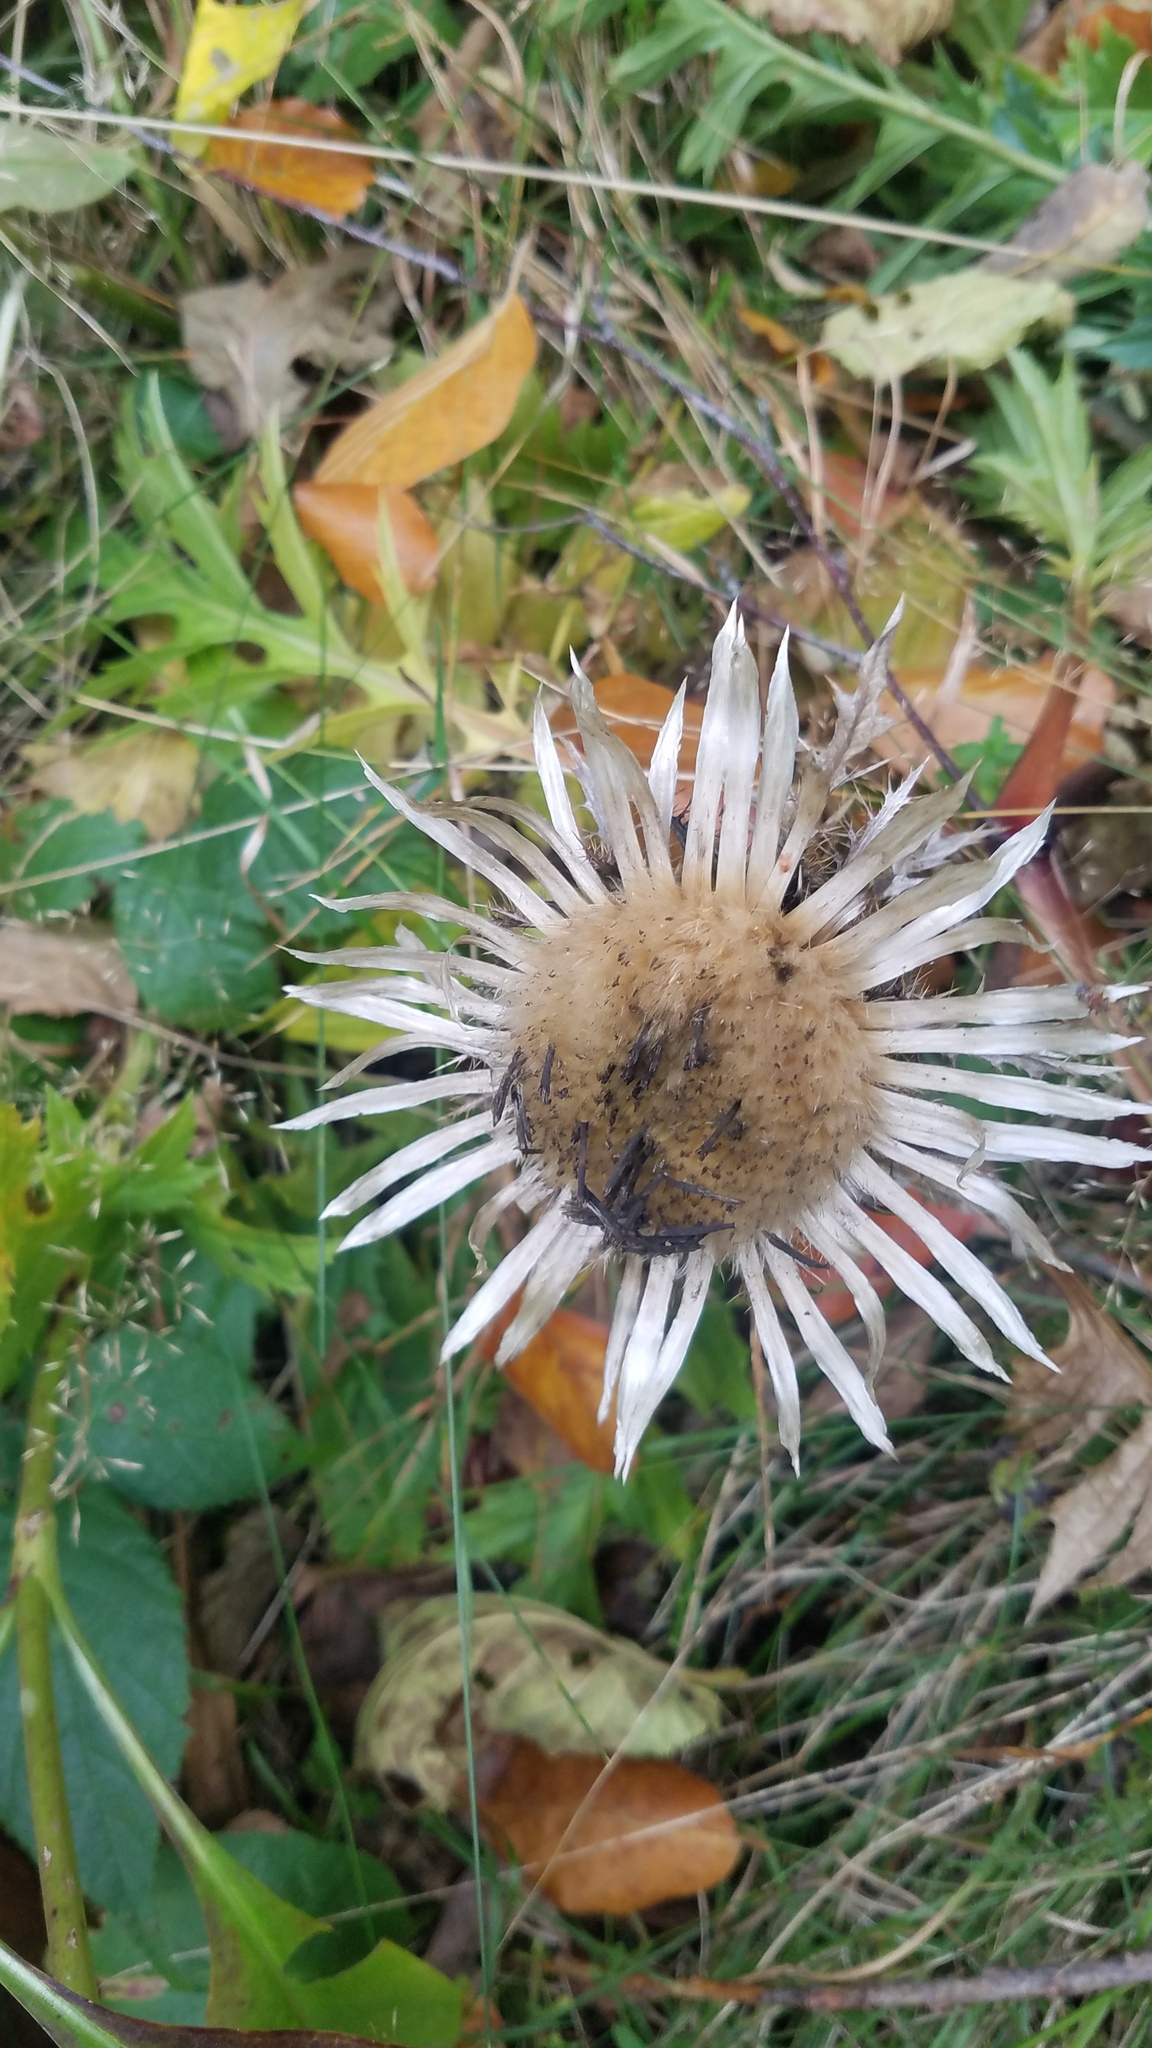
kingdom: Plantae
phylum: Tracheophyta
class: Magnoliopsida
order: Asterales
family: Asteraceae
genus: Carlina
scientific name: Carlina acaulis
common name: Stemless carline thistle
